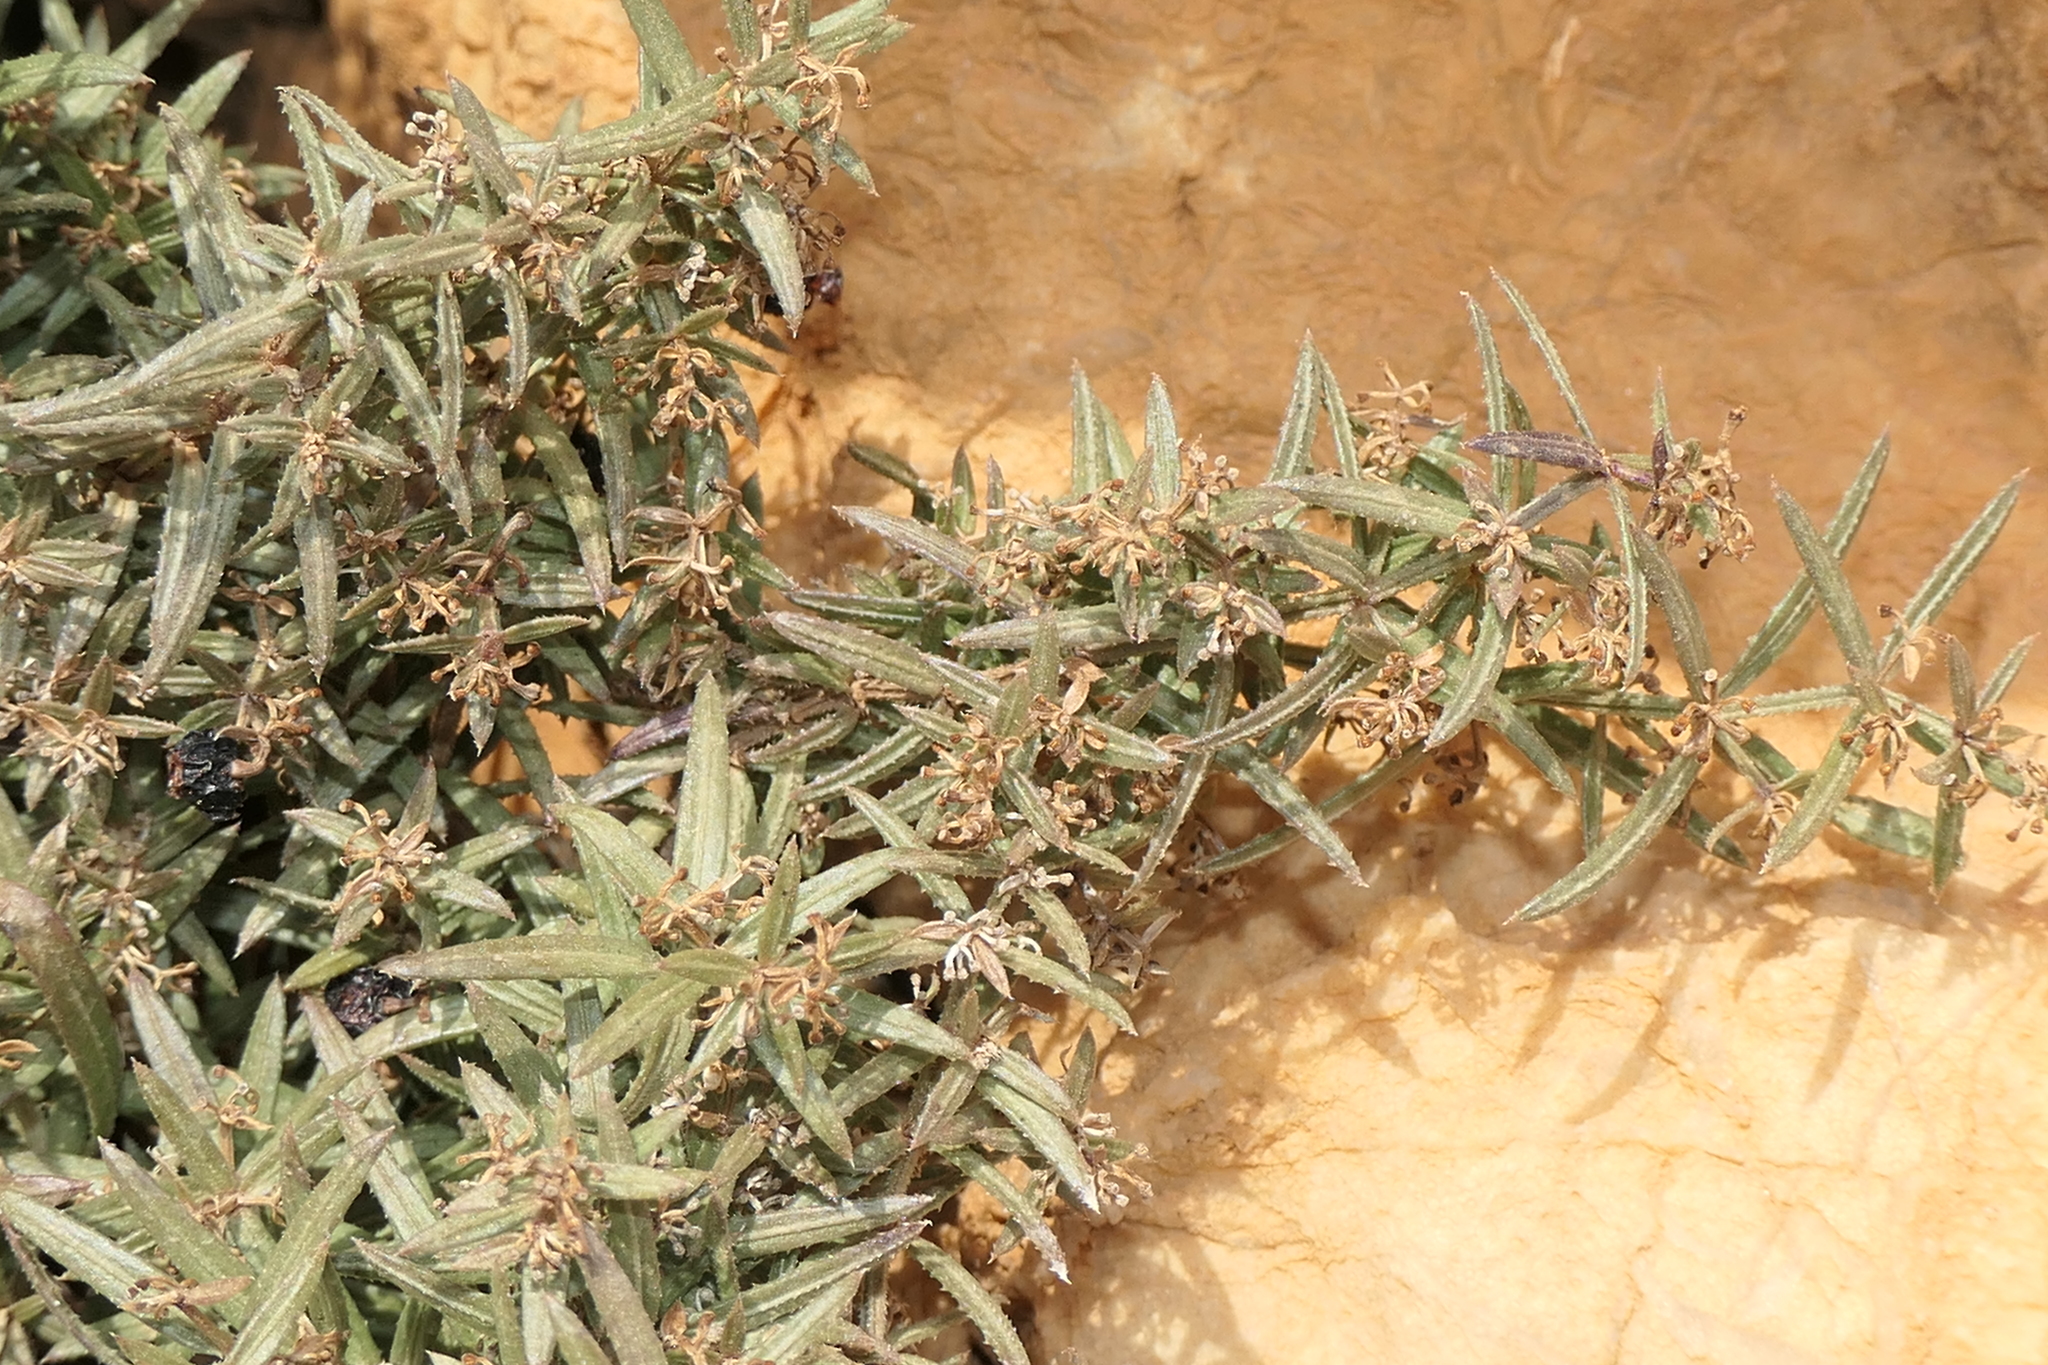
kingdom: Plantae
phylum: Tracheophyta
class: Magnoliopsida
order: Gentianales
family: Rubiaceae
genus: Rubia
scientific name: Rubia balearica
